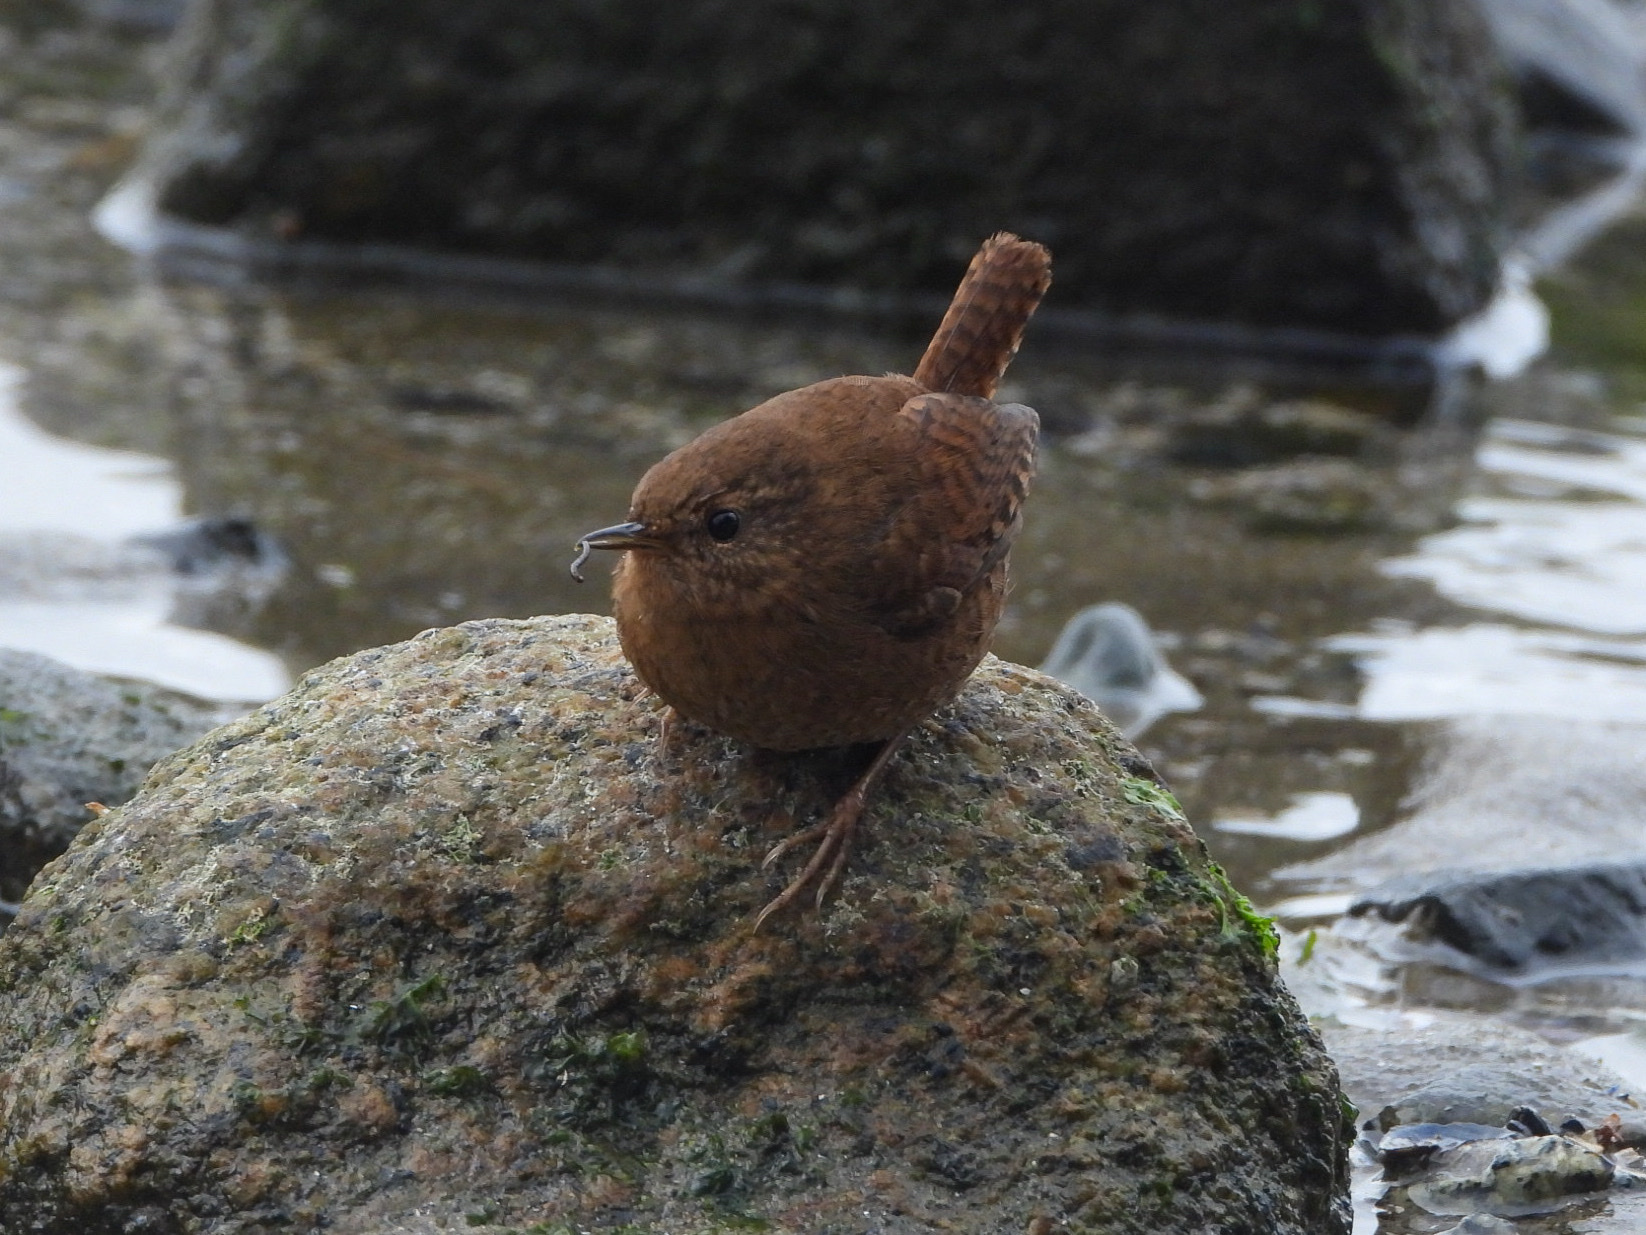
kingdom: Animalia
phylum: Chordata
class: Aves
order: Passeriformes
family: Troglodytidae
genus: Troglodytes
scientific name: Troglodytes pacificus
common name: Pacific wren
